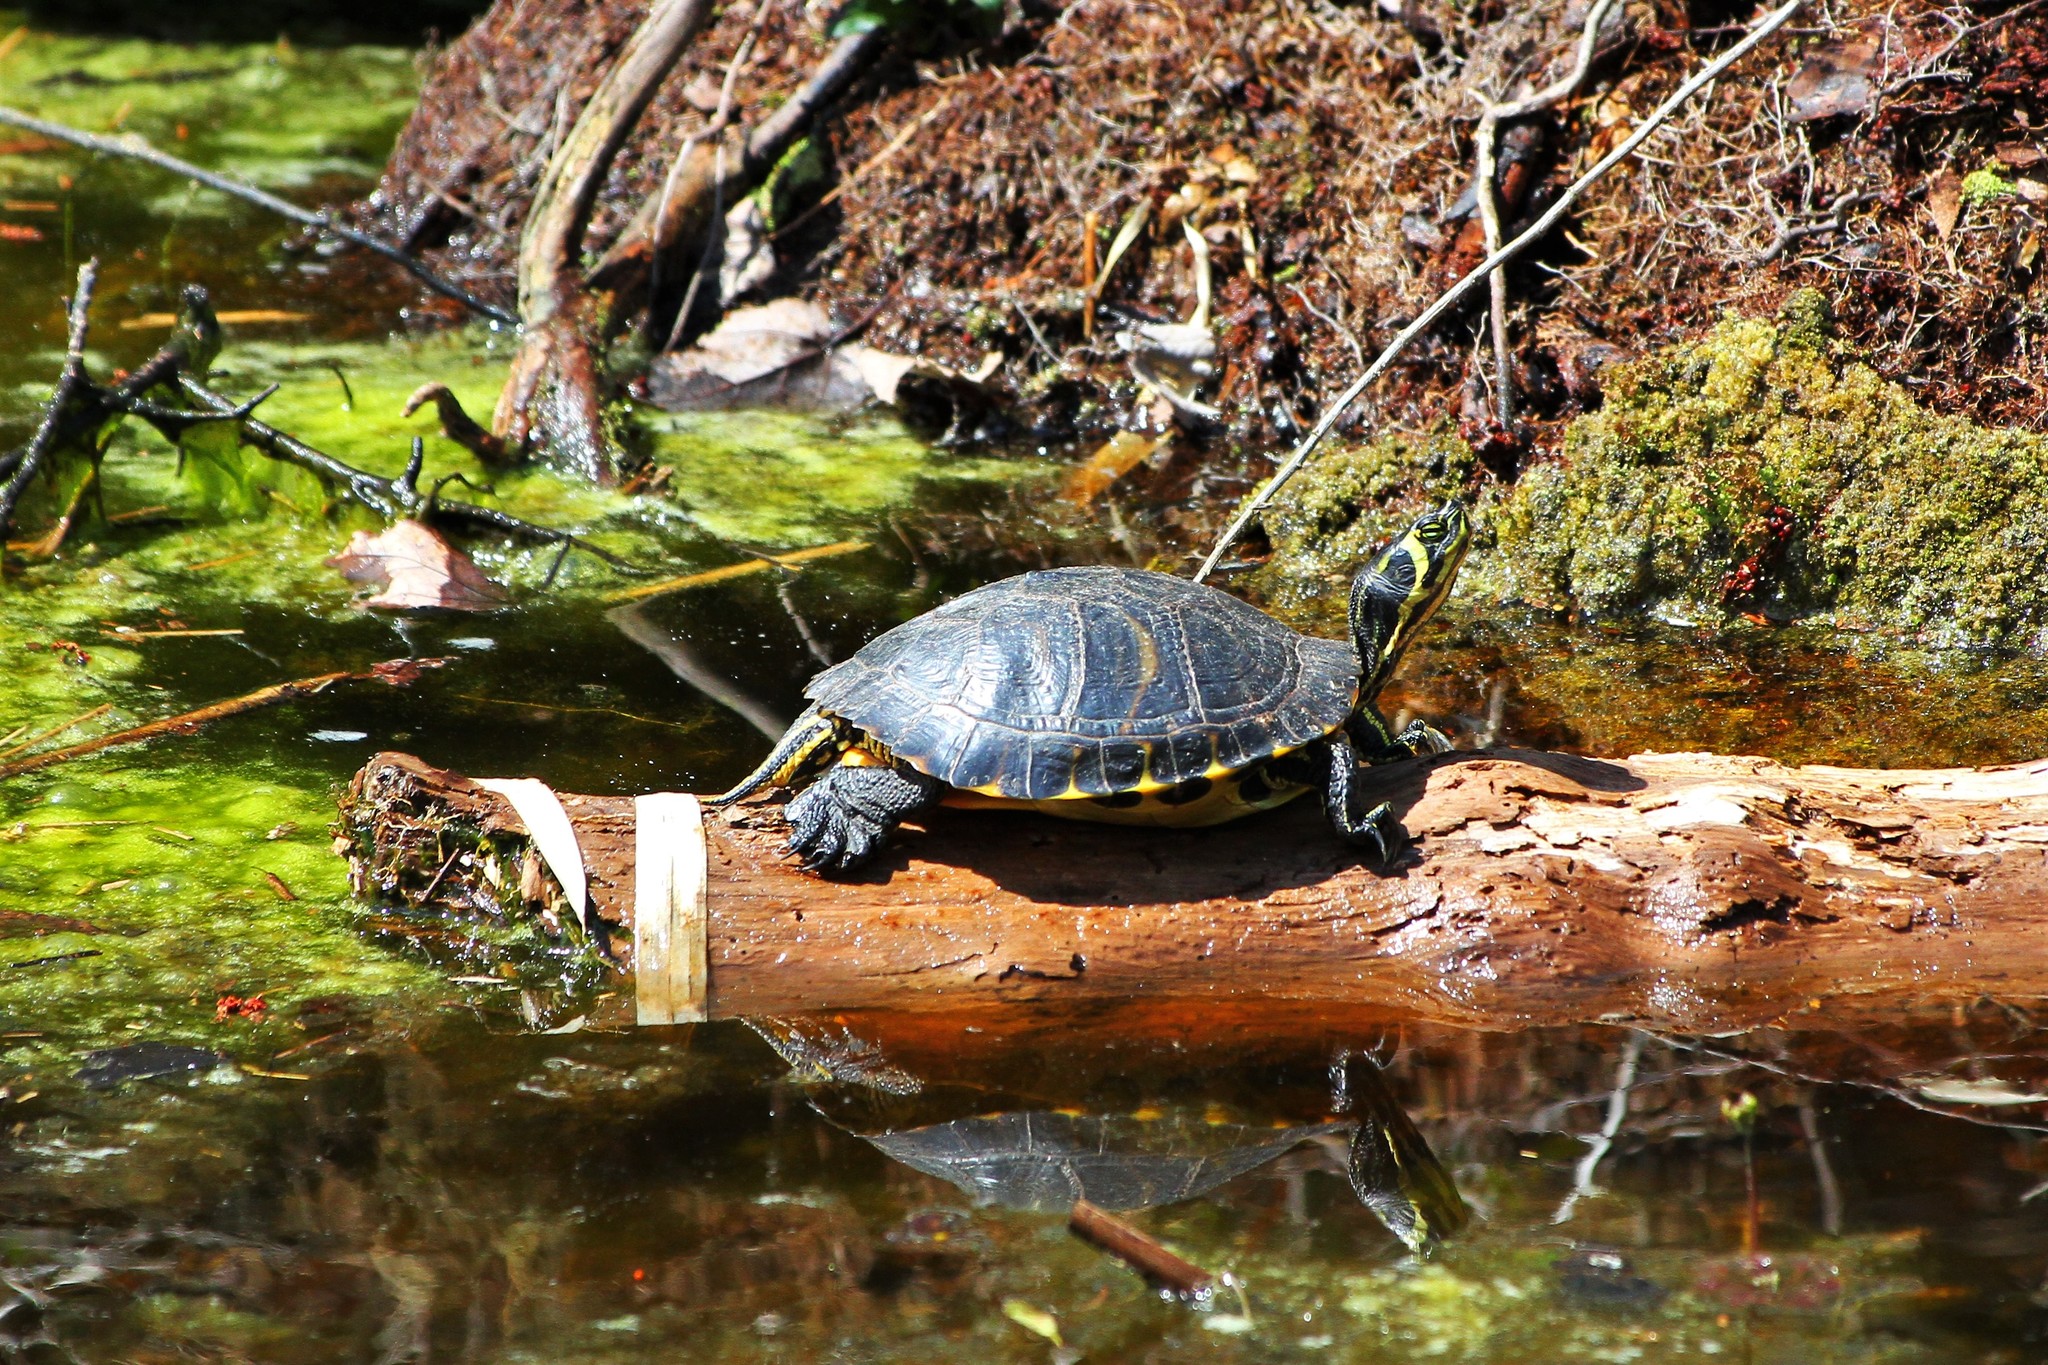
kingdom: Animalia
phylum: Chordata
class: Testudines
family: Emydidae
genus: Trachemys
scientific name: Trachemys scripta
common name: Slider
